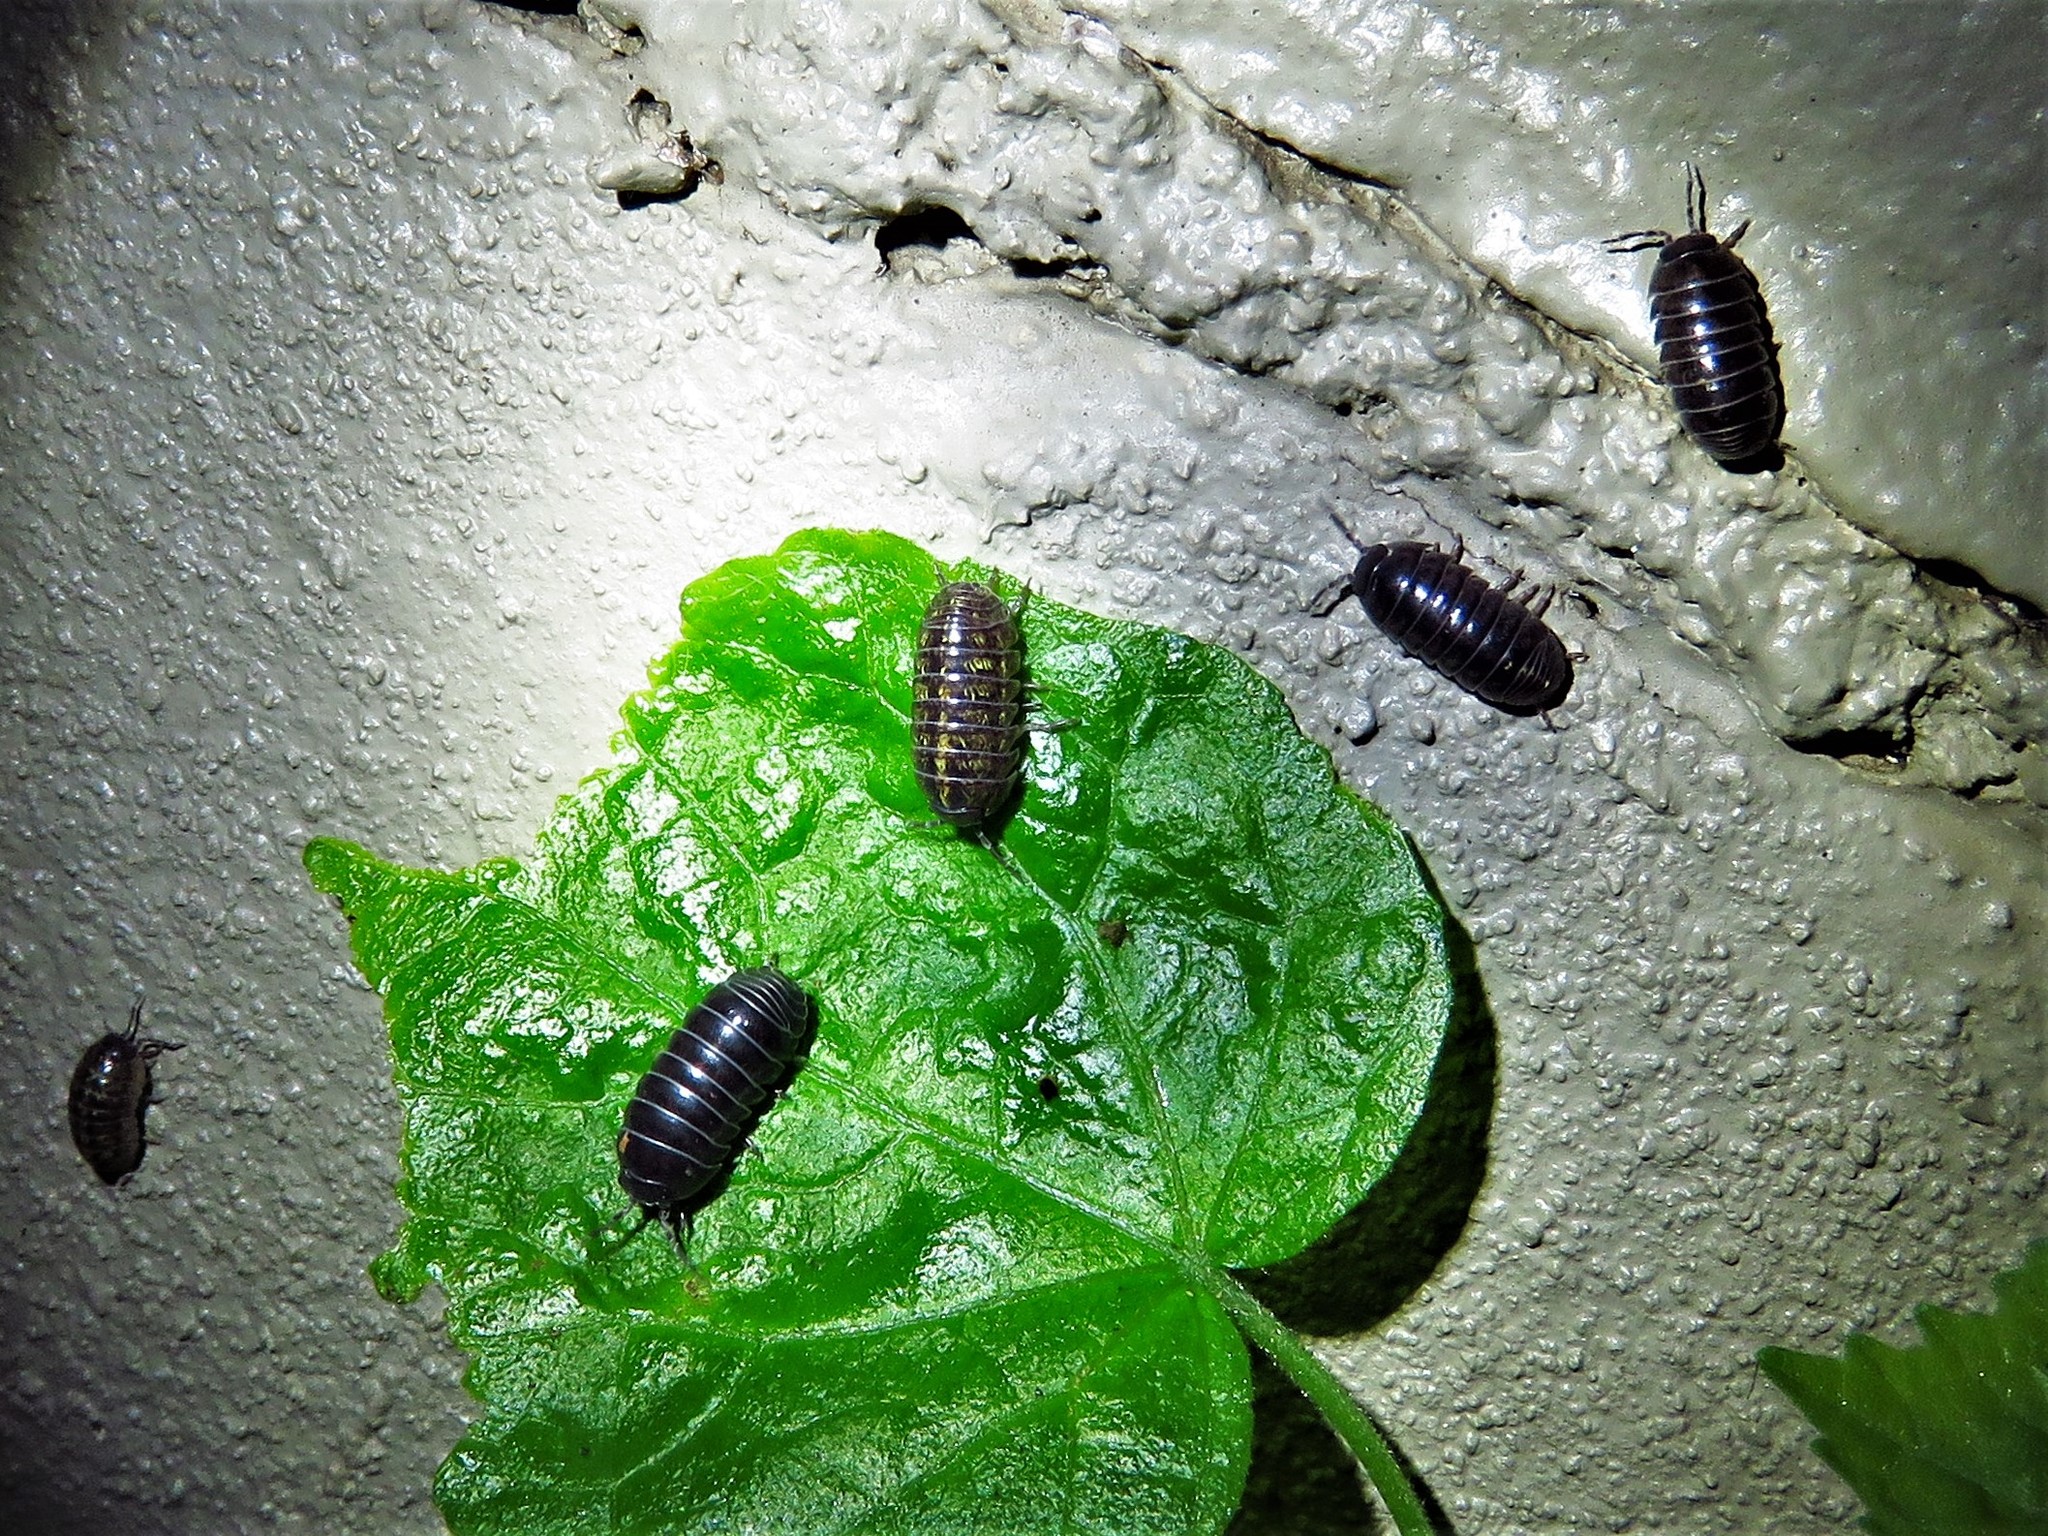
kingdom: Animalia
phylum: Arthropoda
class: Malacostraca
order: Isopoda
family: Armadillidiidae
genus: Armadillidium
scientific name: Armadillidium vulgare
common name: Common pill woodlouse
